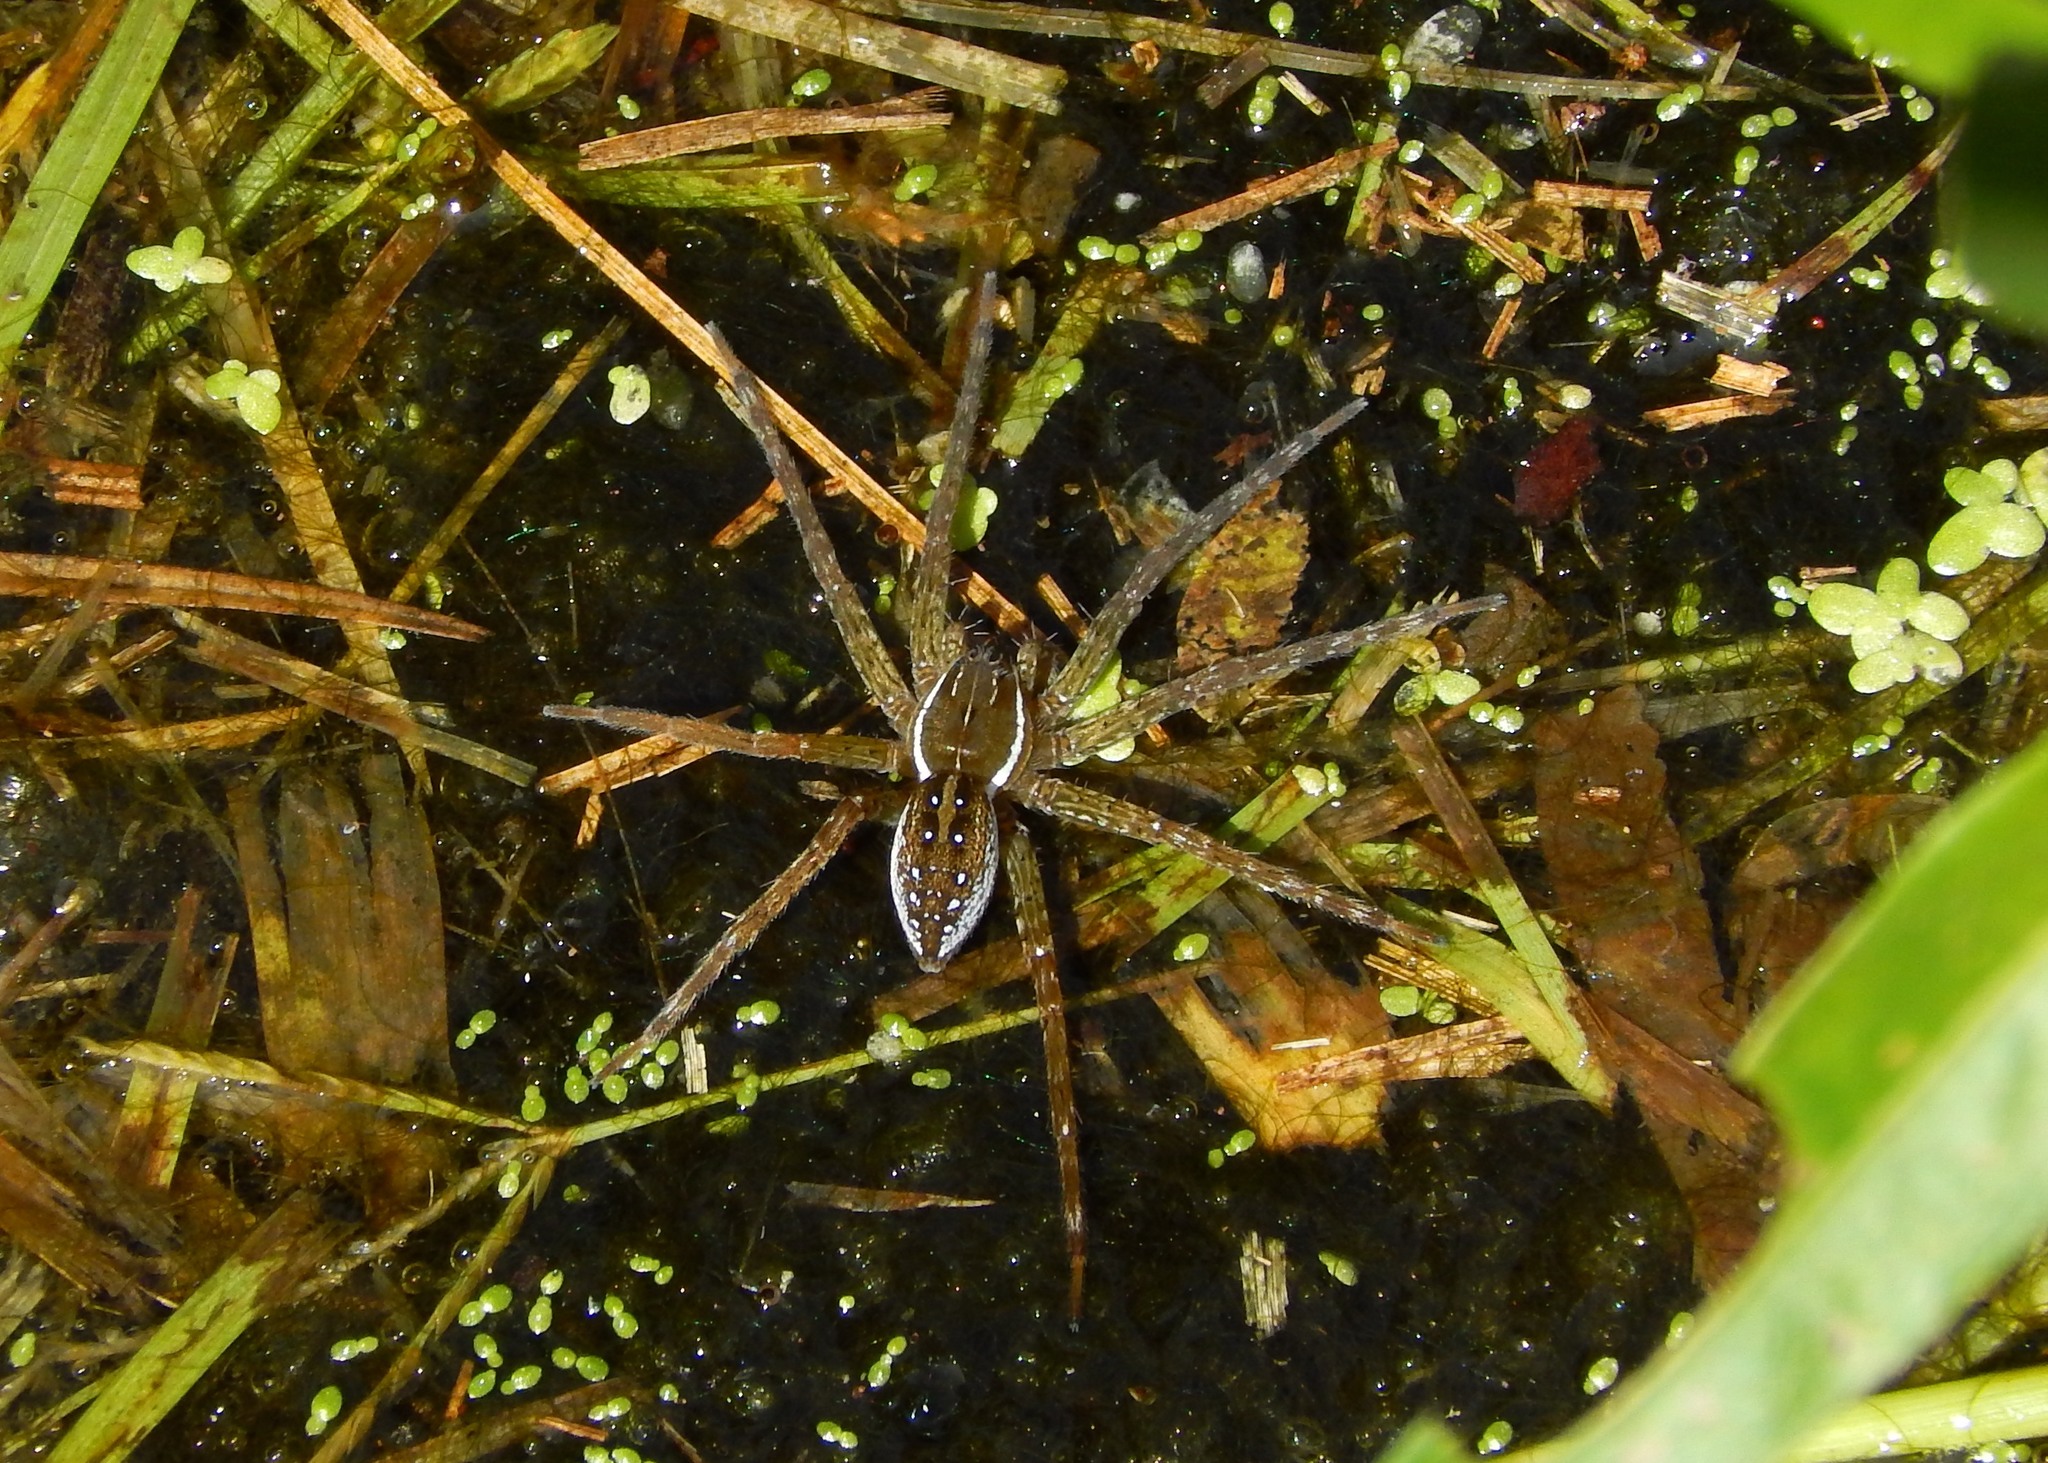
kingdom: Animalia
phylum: Arthropoda
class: Arachnida
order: Araneae
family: Pisauridae
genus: Dolomedes
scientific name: Dolomedes triton
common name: Six-spotted fishing spider
